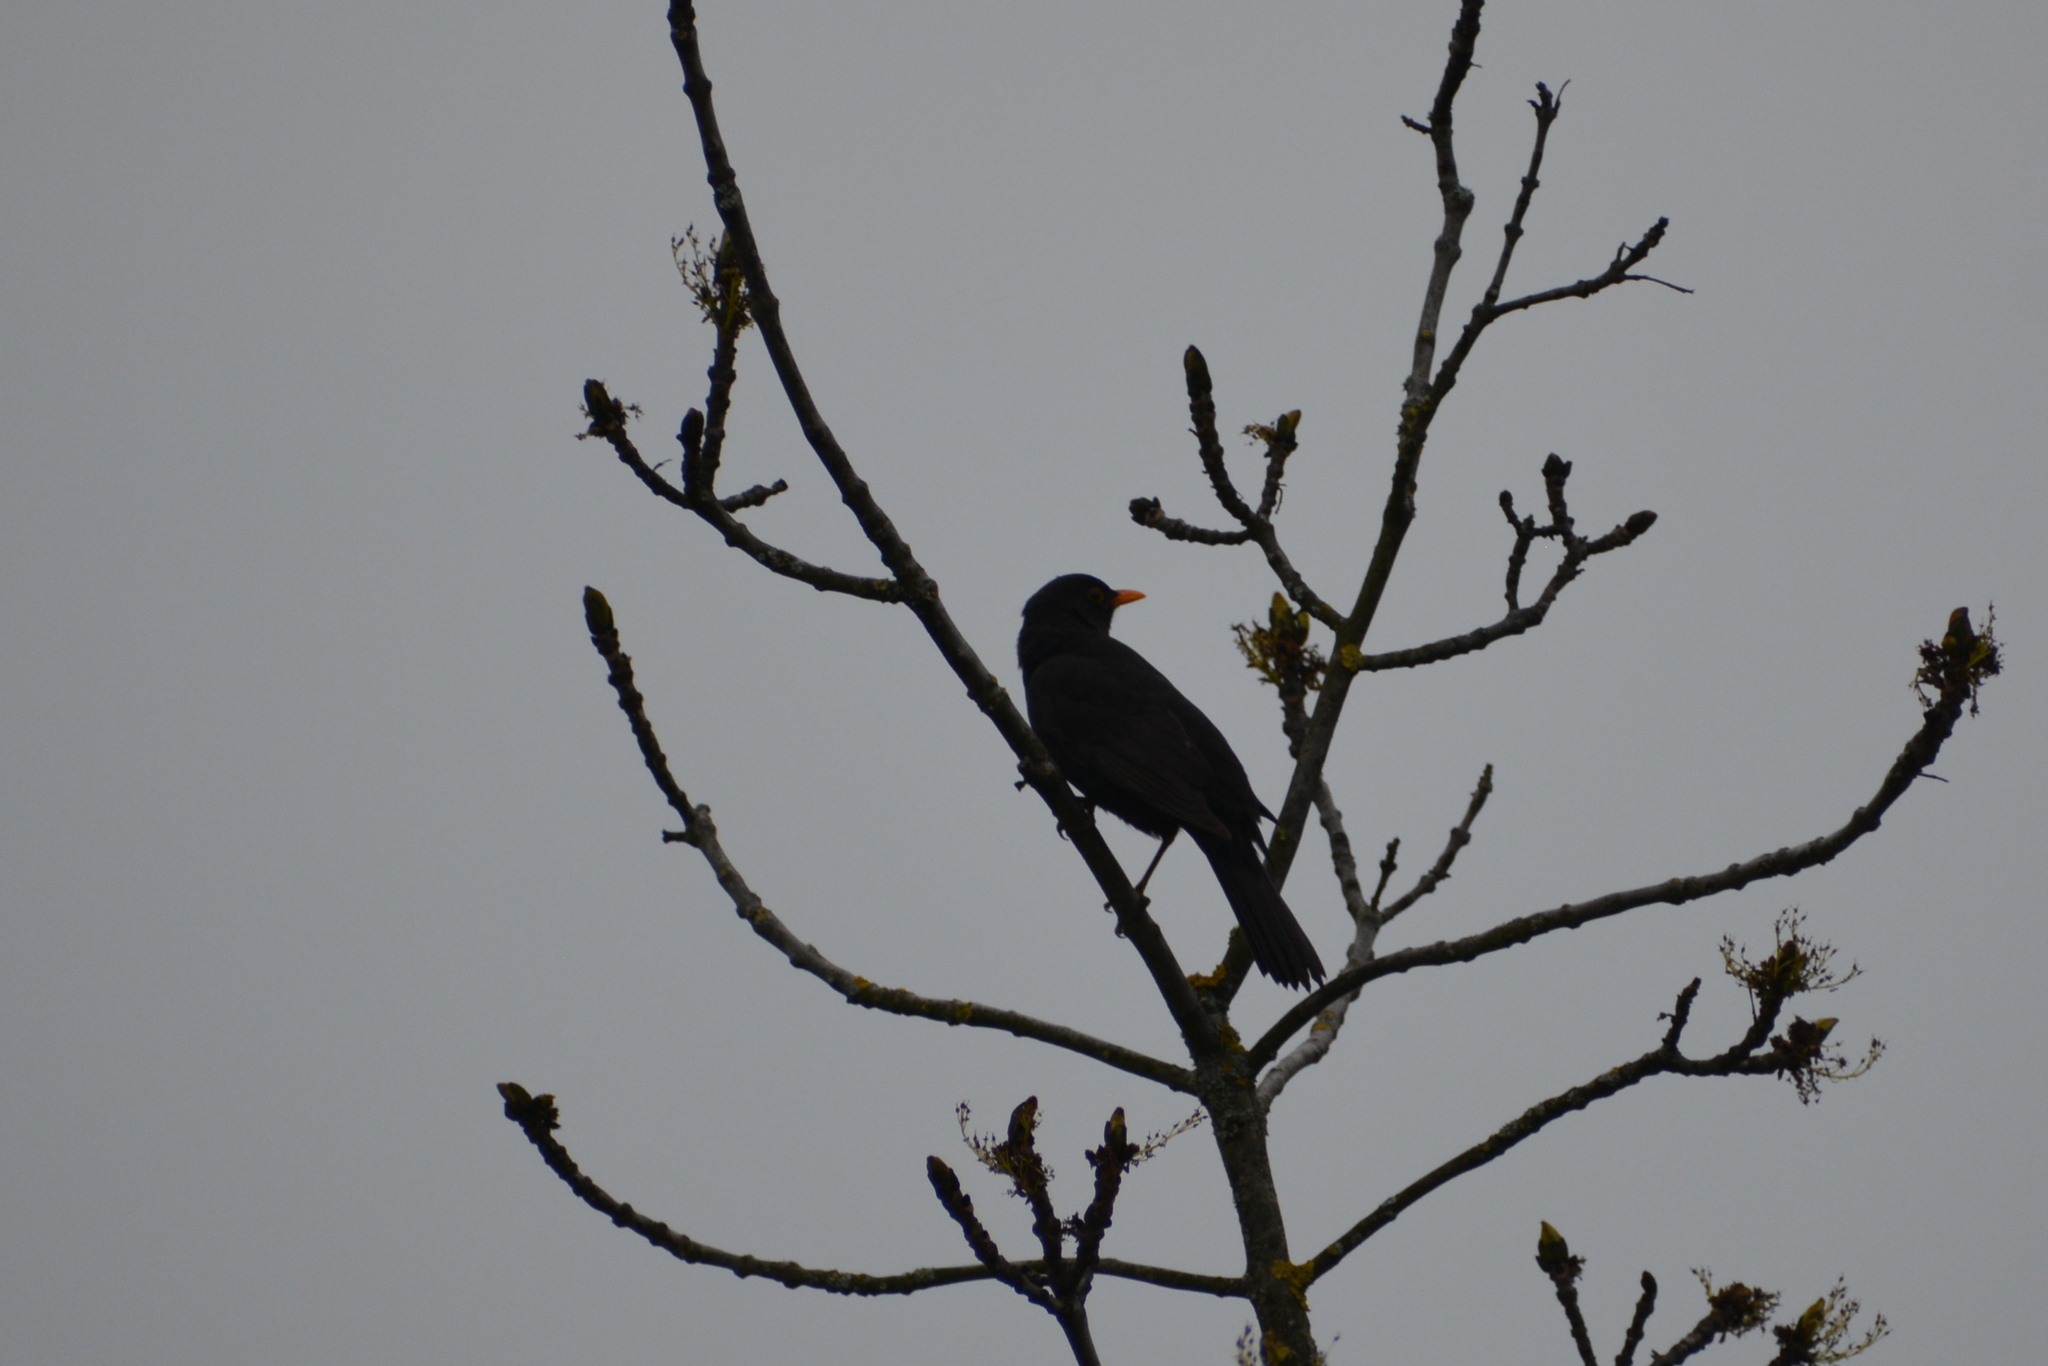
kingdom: Animalia
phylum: Chordata
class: Aves
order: Passeriformes
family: Turdidae
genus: Turdus
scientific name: Turdus merula
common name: Common blackbird
